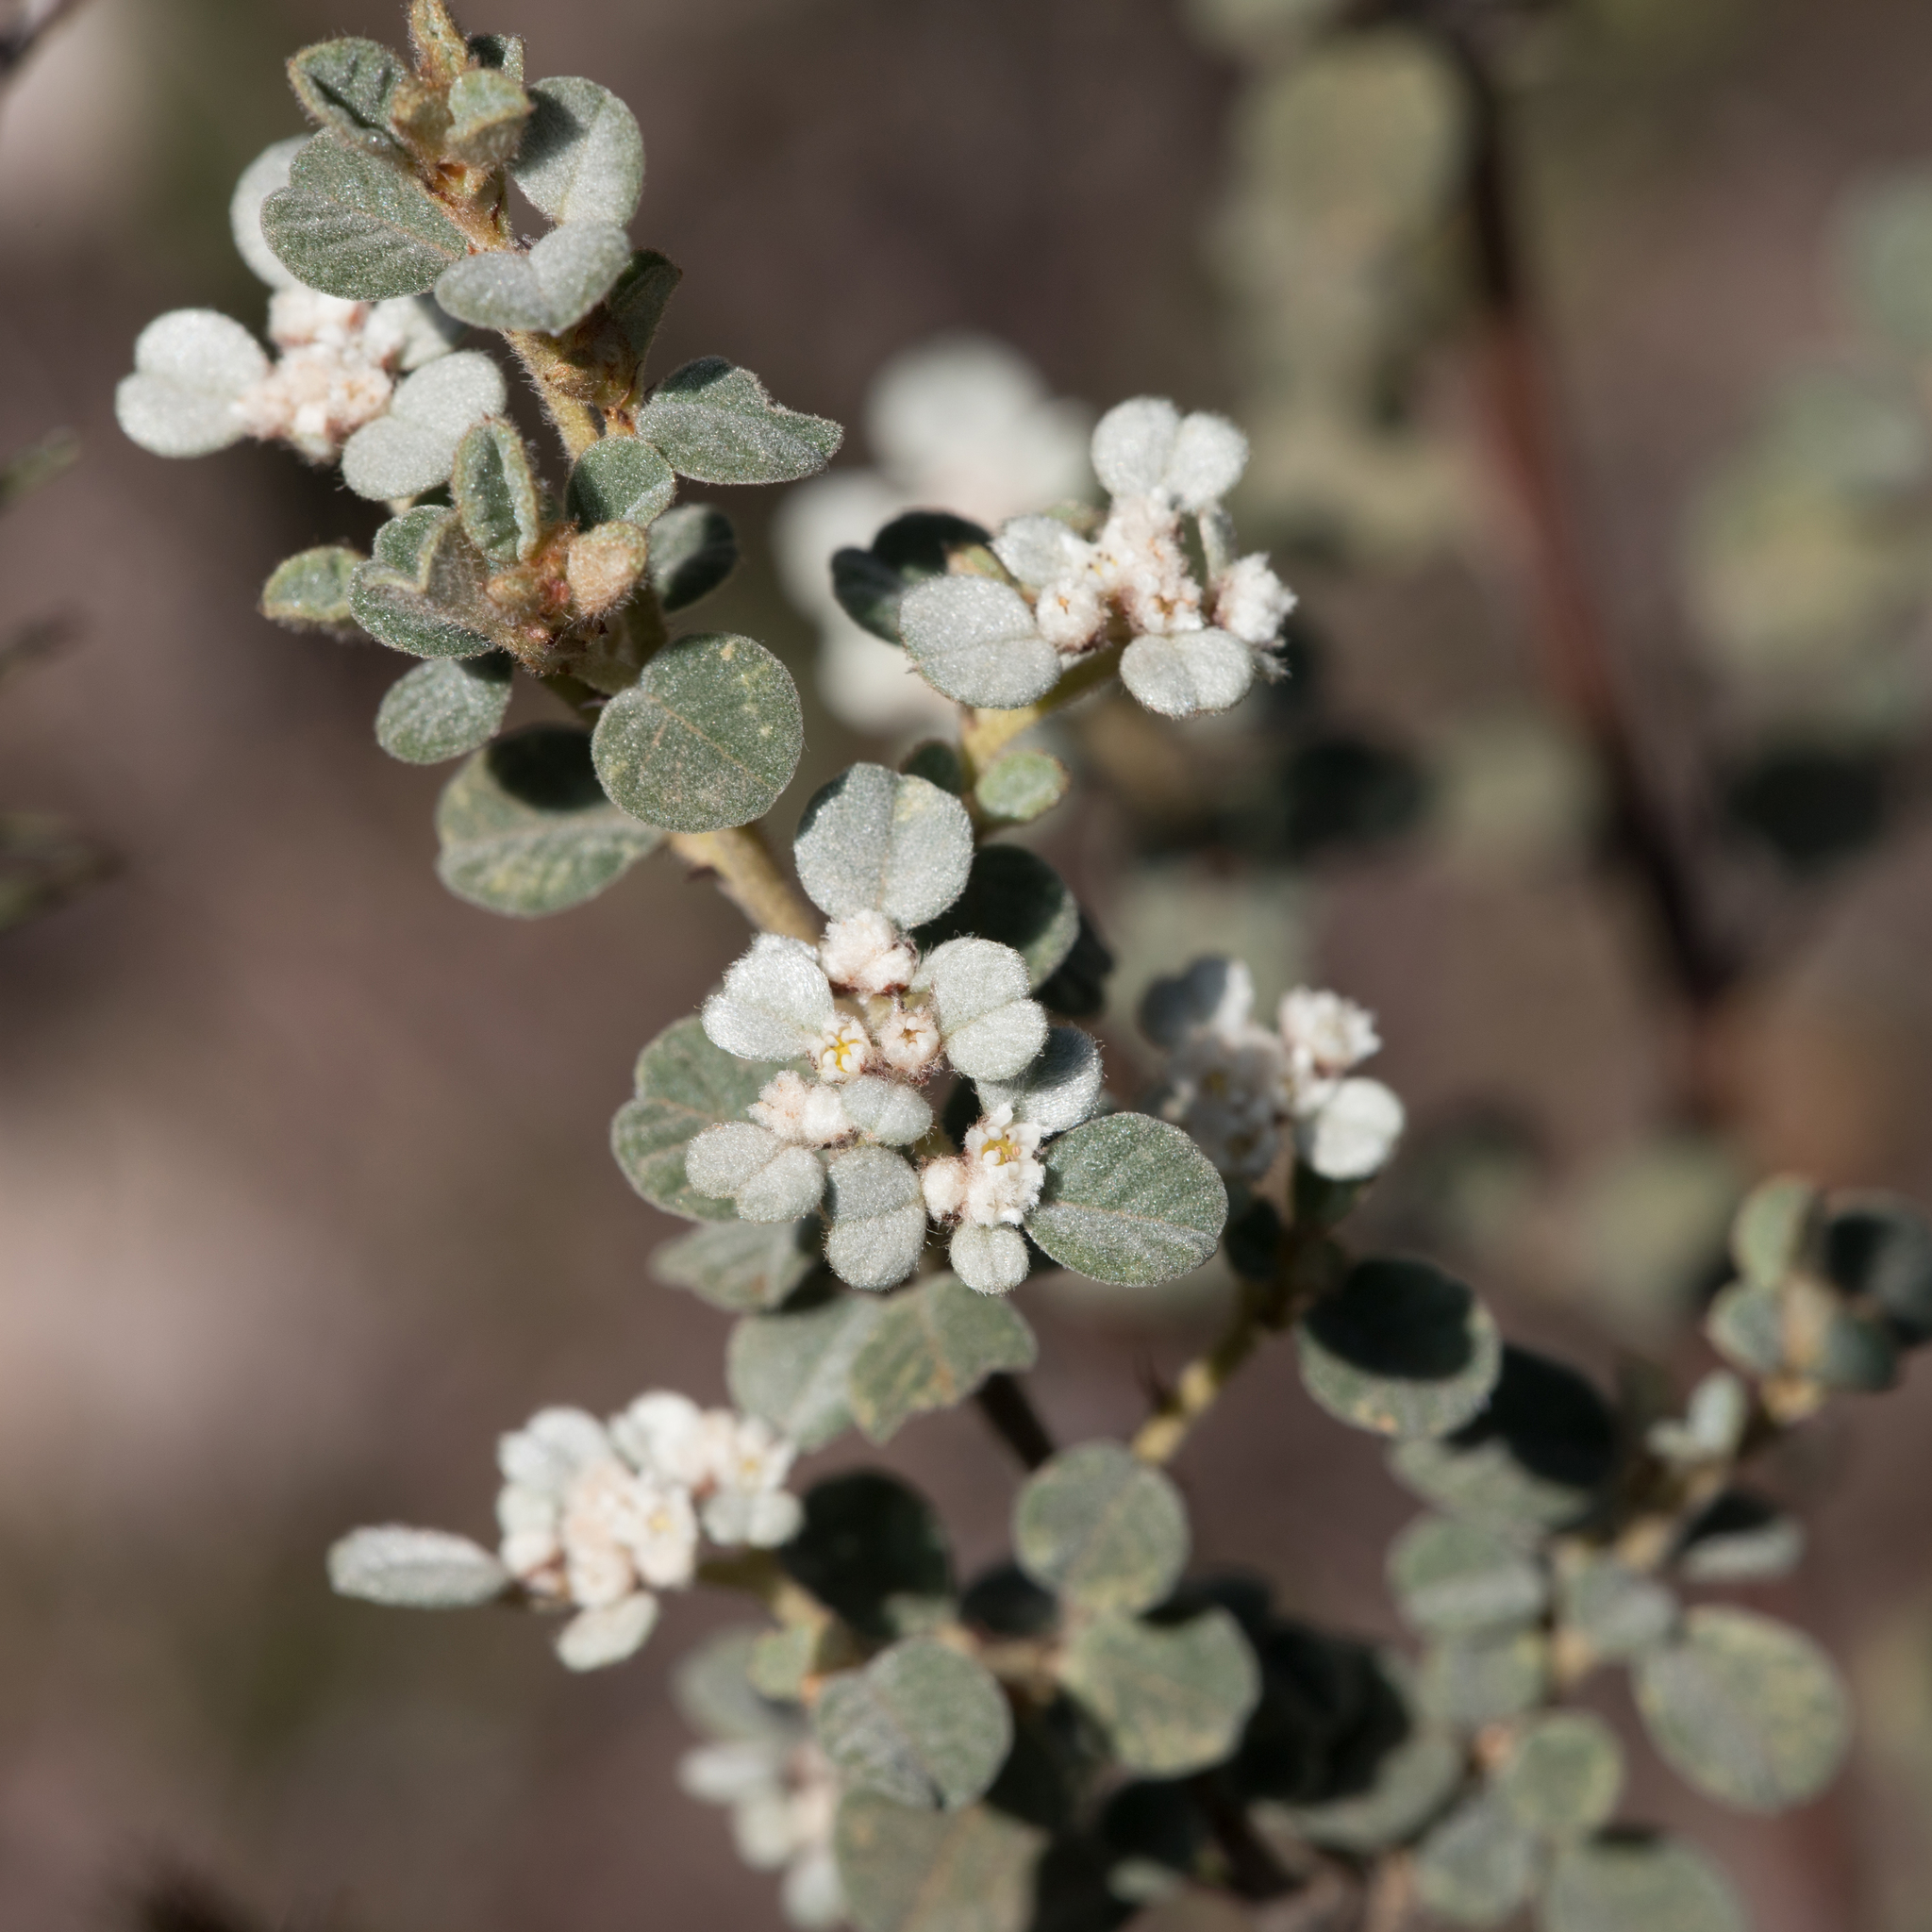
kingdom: Plantae
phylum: Tracheophyta
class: Magnoliopsida
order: Rosales
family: Rhamnaceae
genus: Spyridium
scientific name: Spyridium parvifolium
